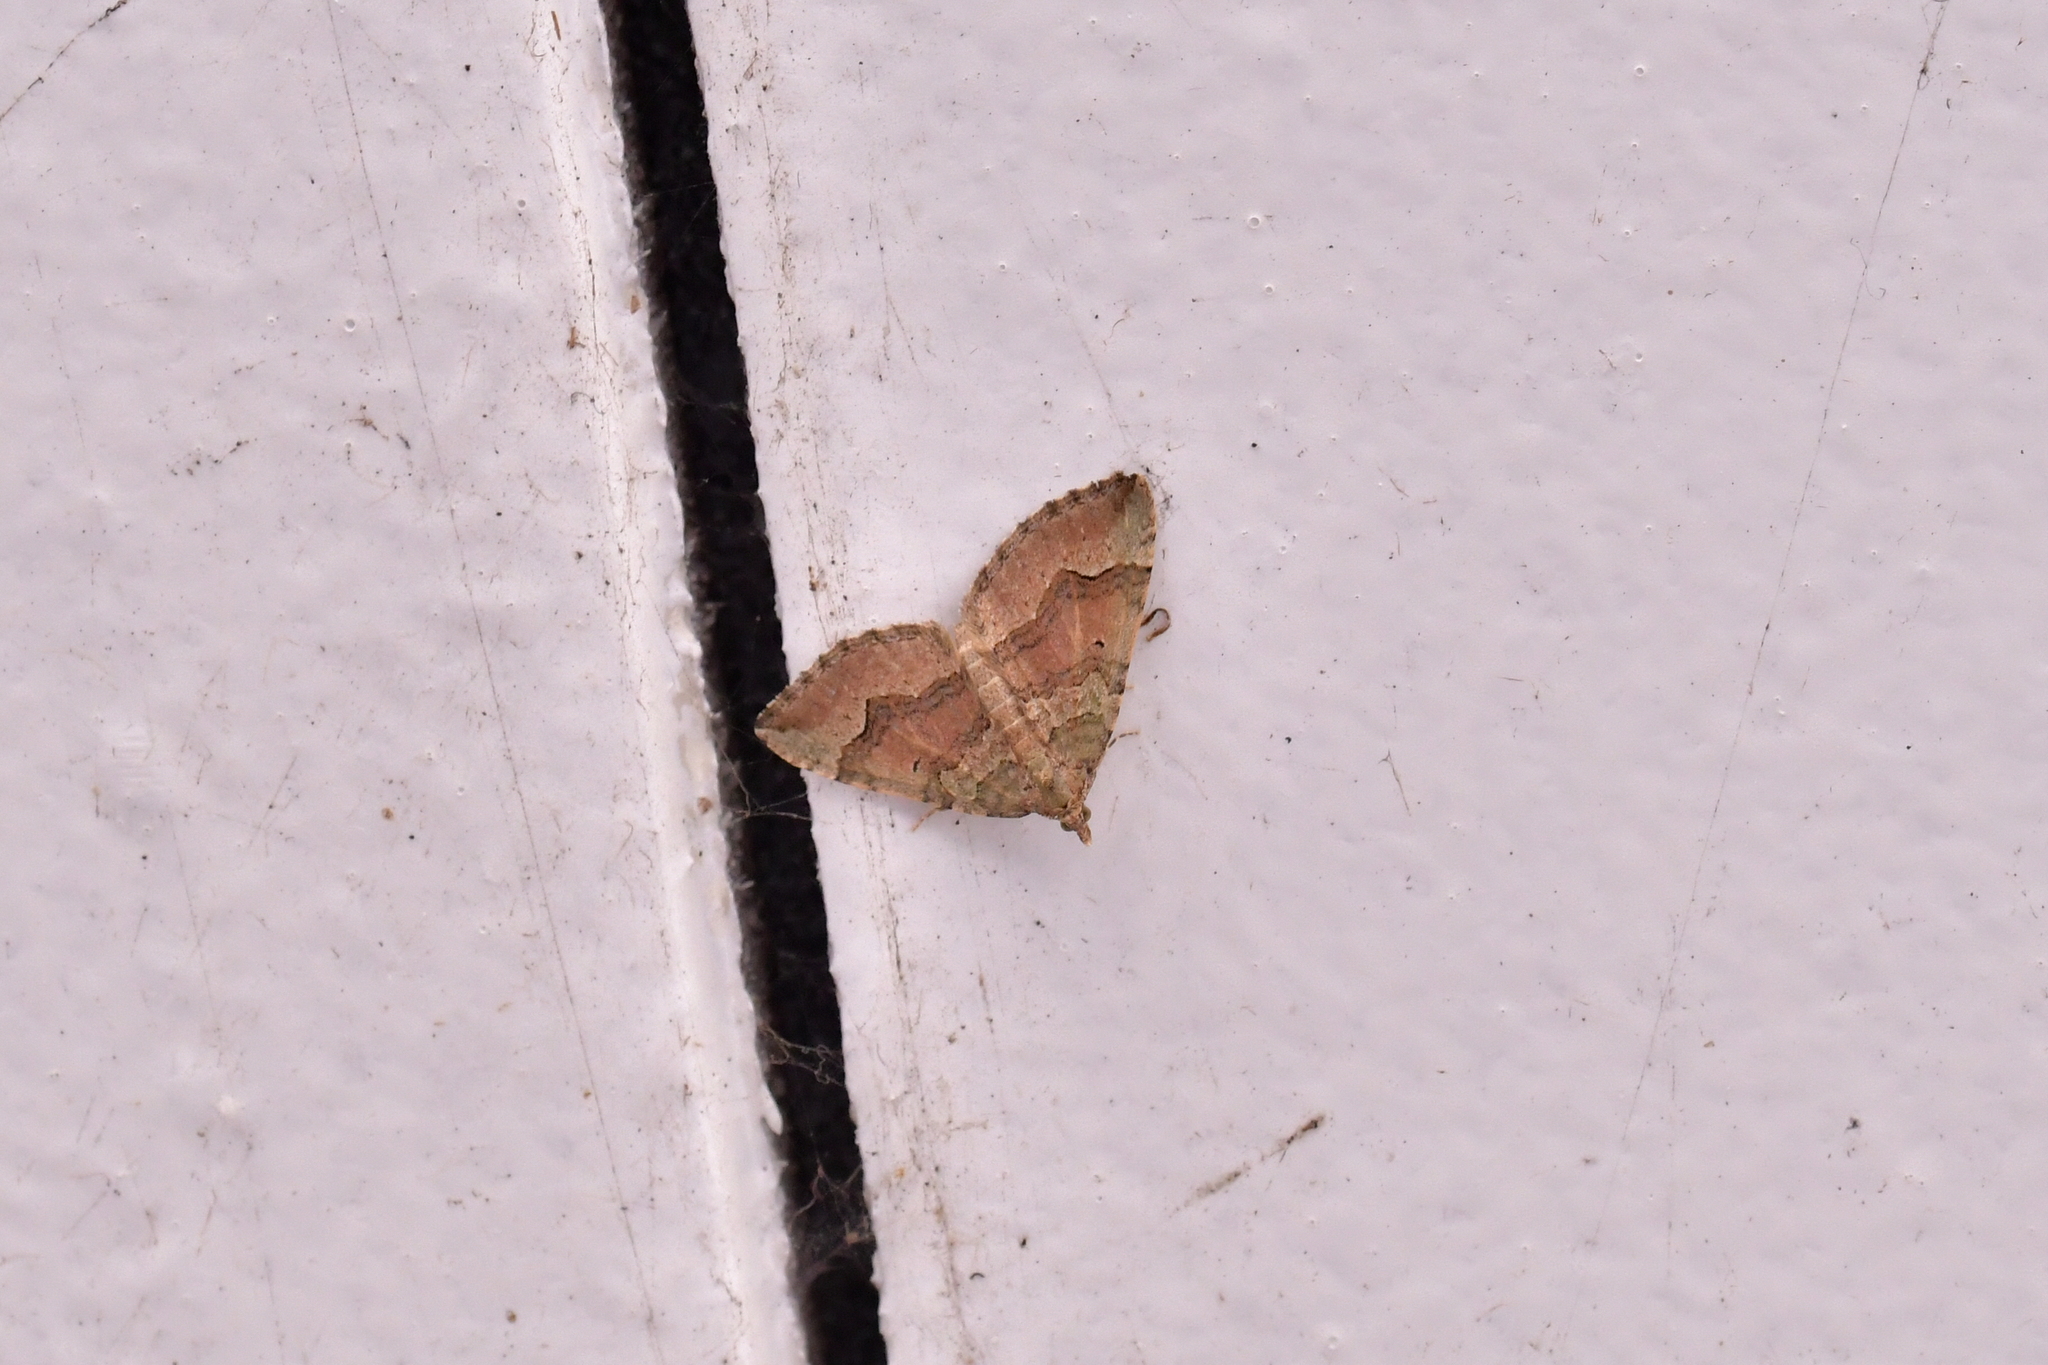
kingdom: Animalia
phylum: Arthropoda
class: Insecta
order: Lepidoptera
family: Geometridae
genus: Epyaxa
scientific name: Epyaxa rosearia
